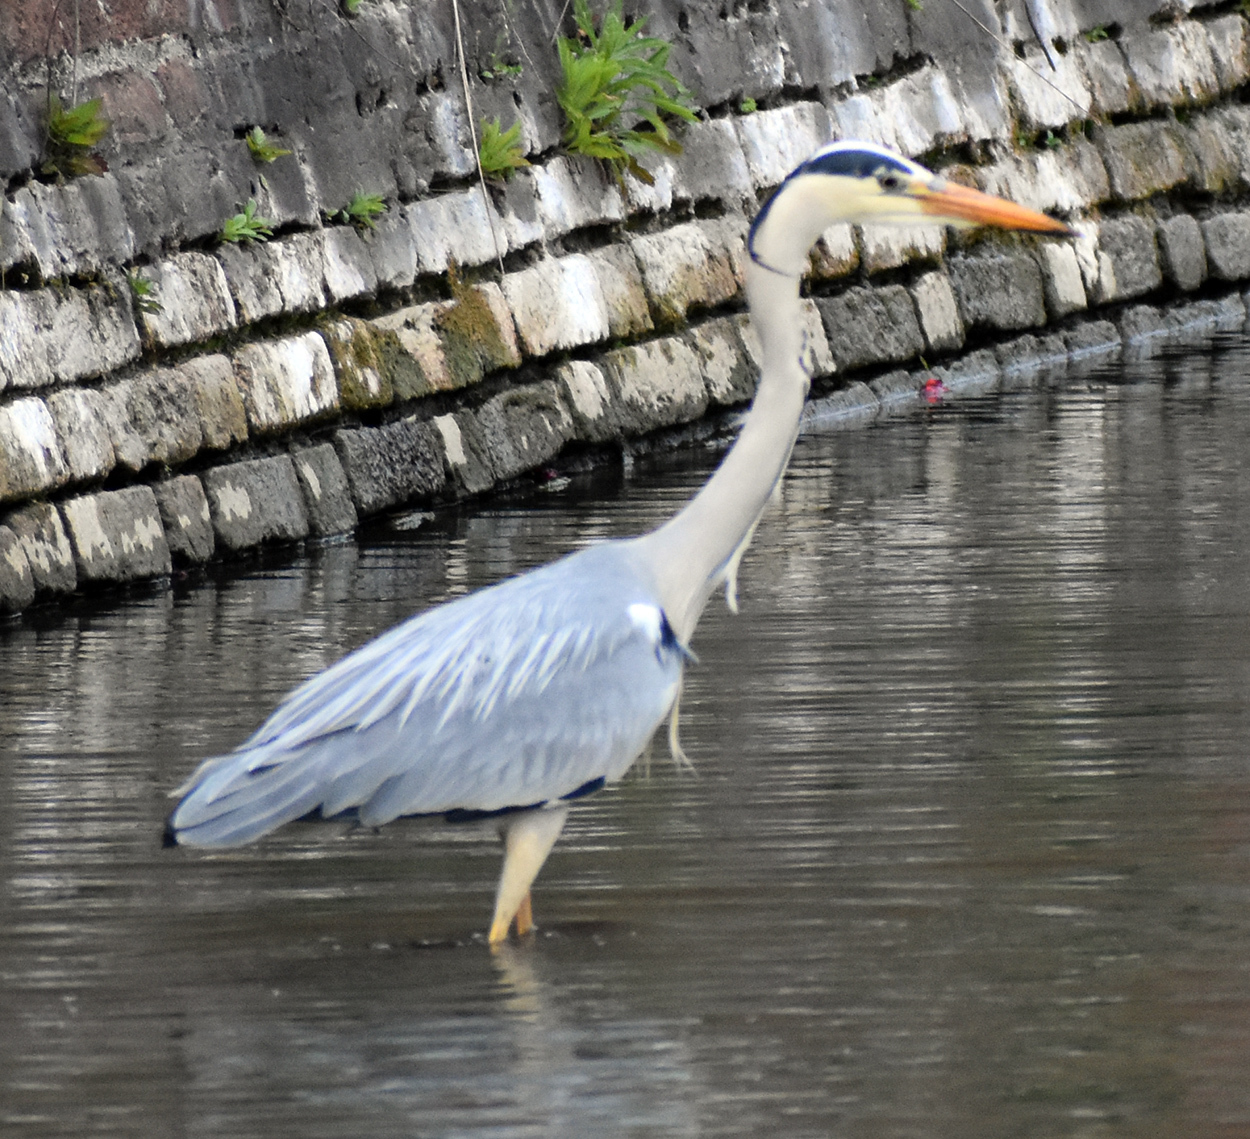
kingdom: Animalia
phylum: Chordata
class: Aves
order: Pelecaniformes
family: Ardeidae
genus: Ardea
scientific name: Ardea cinerea
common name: Grey heron
